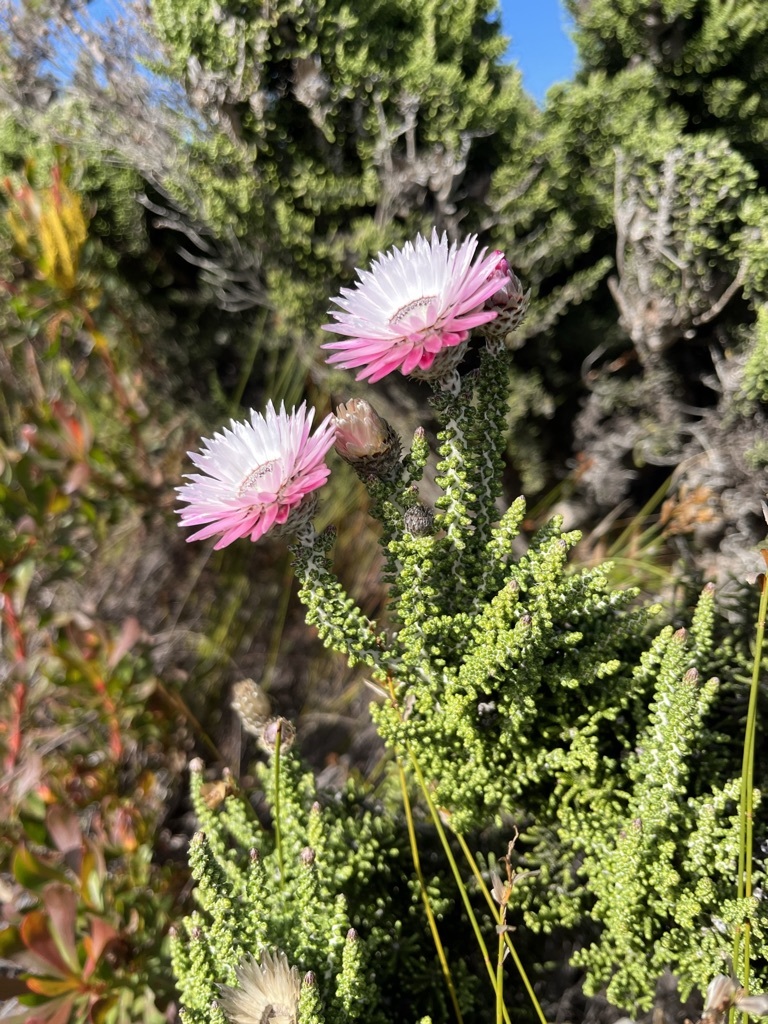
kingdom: Plantae
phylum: Tracheophyta
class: Magnoliopsida
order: Asterales
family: Asteraceae
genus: Phaenocoma
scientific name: Phaenocoma prolifera
